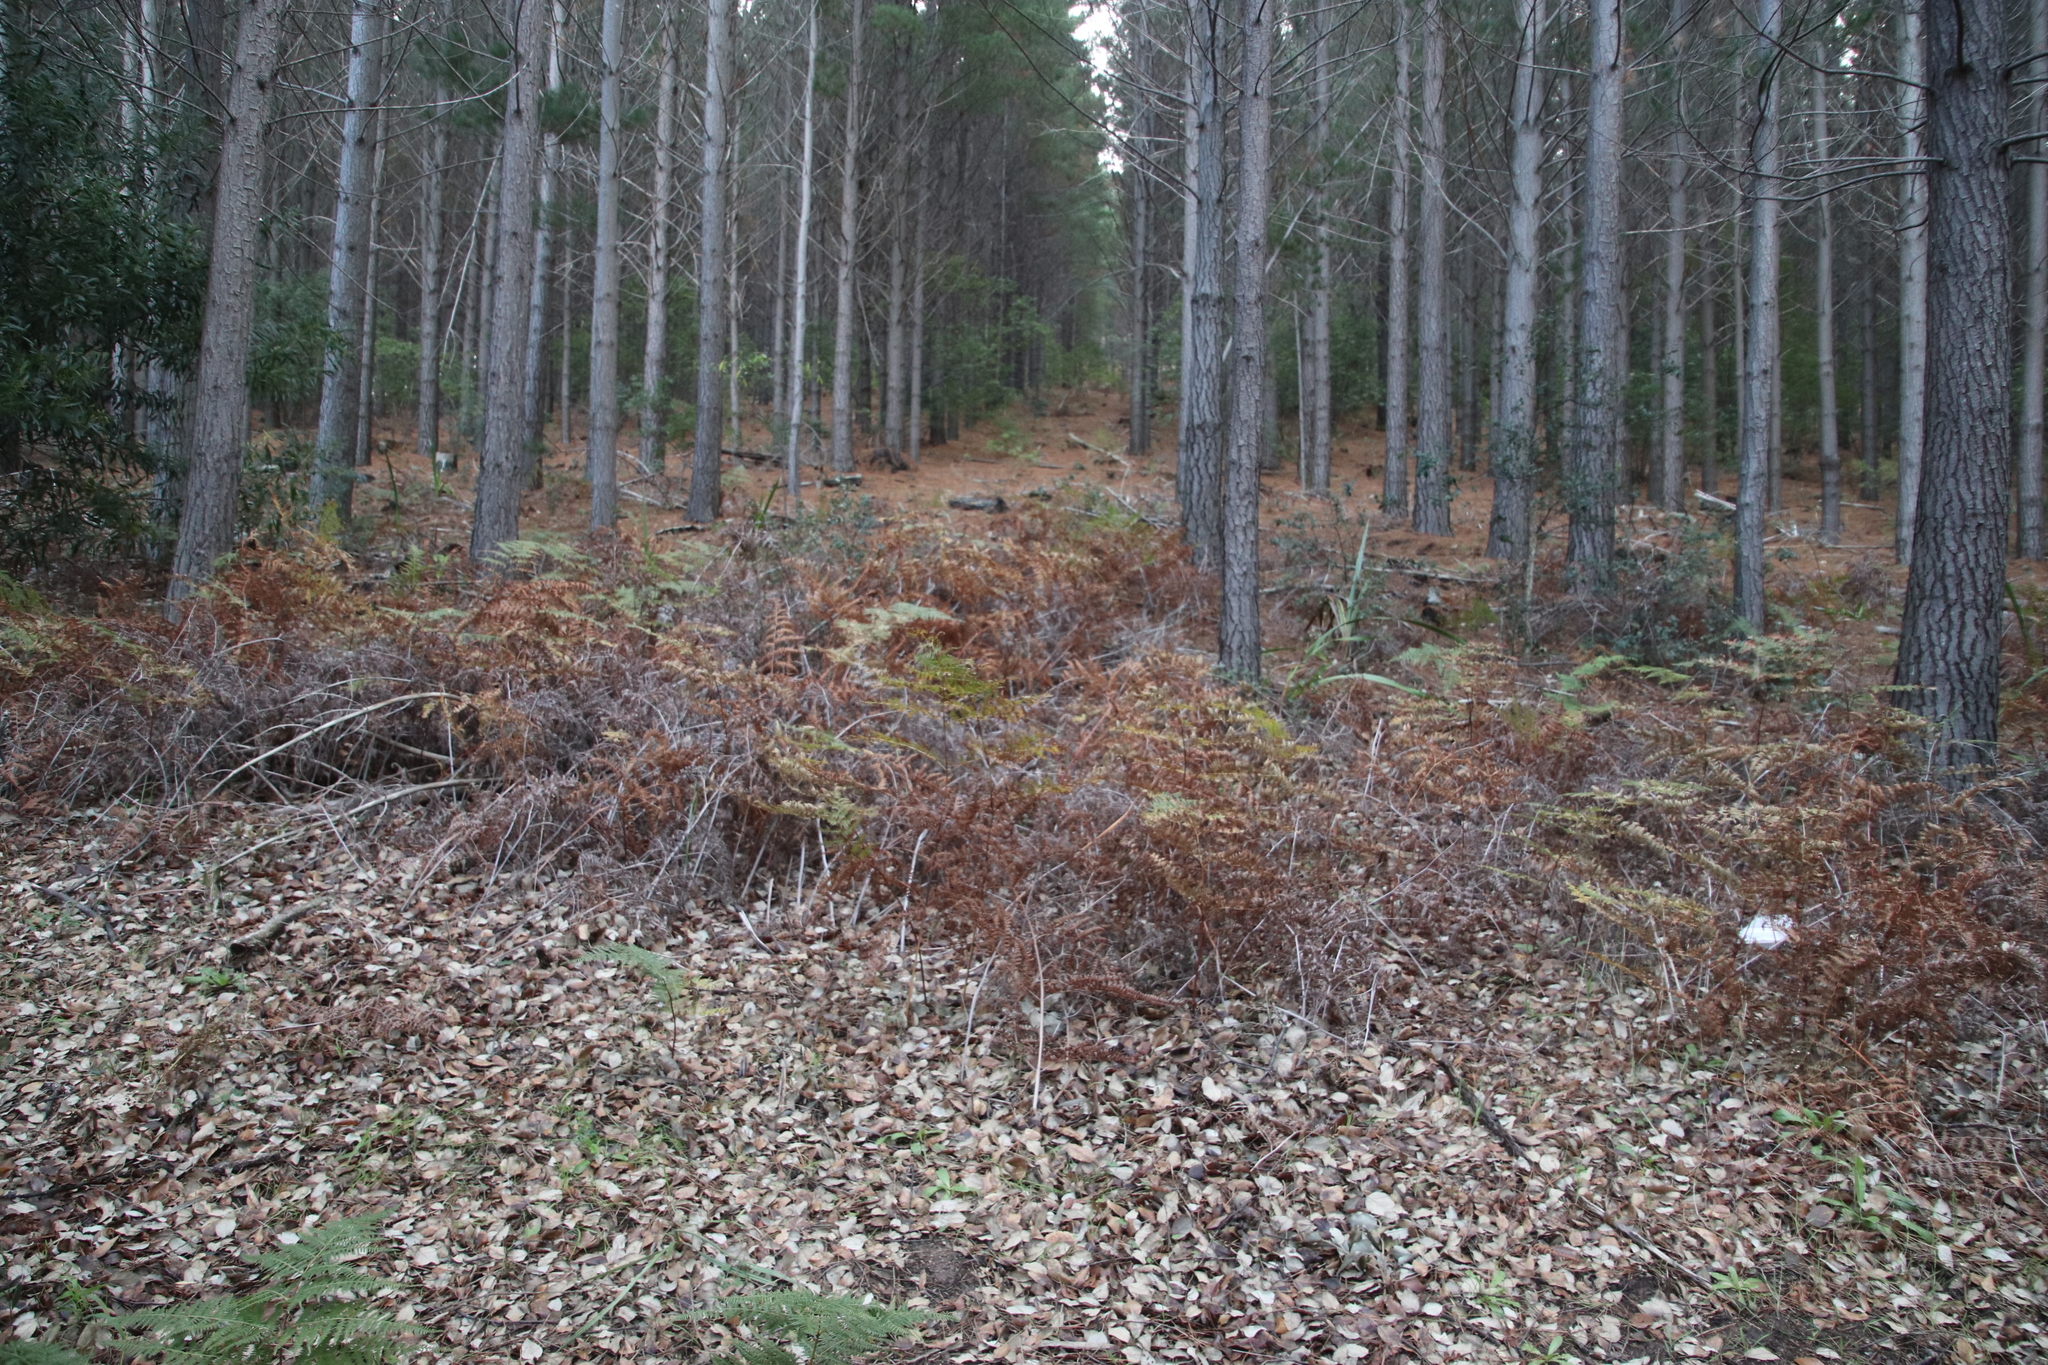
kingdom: Plantae
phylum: Tracheophyta
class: Polypodiopsida
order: Polypodiales
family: Dennstaedtiaceae
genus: Pteridium
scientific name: Pteridium aquilinum
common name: Bracken
